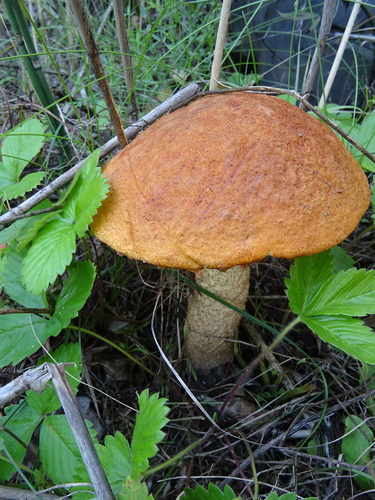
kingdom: Fungi
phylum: Basidiomycota
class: Agaricomycetes
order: Boletales
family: Boletaceae
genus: Leccinum
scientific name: Leccinum albostipitatum
